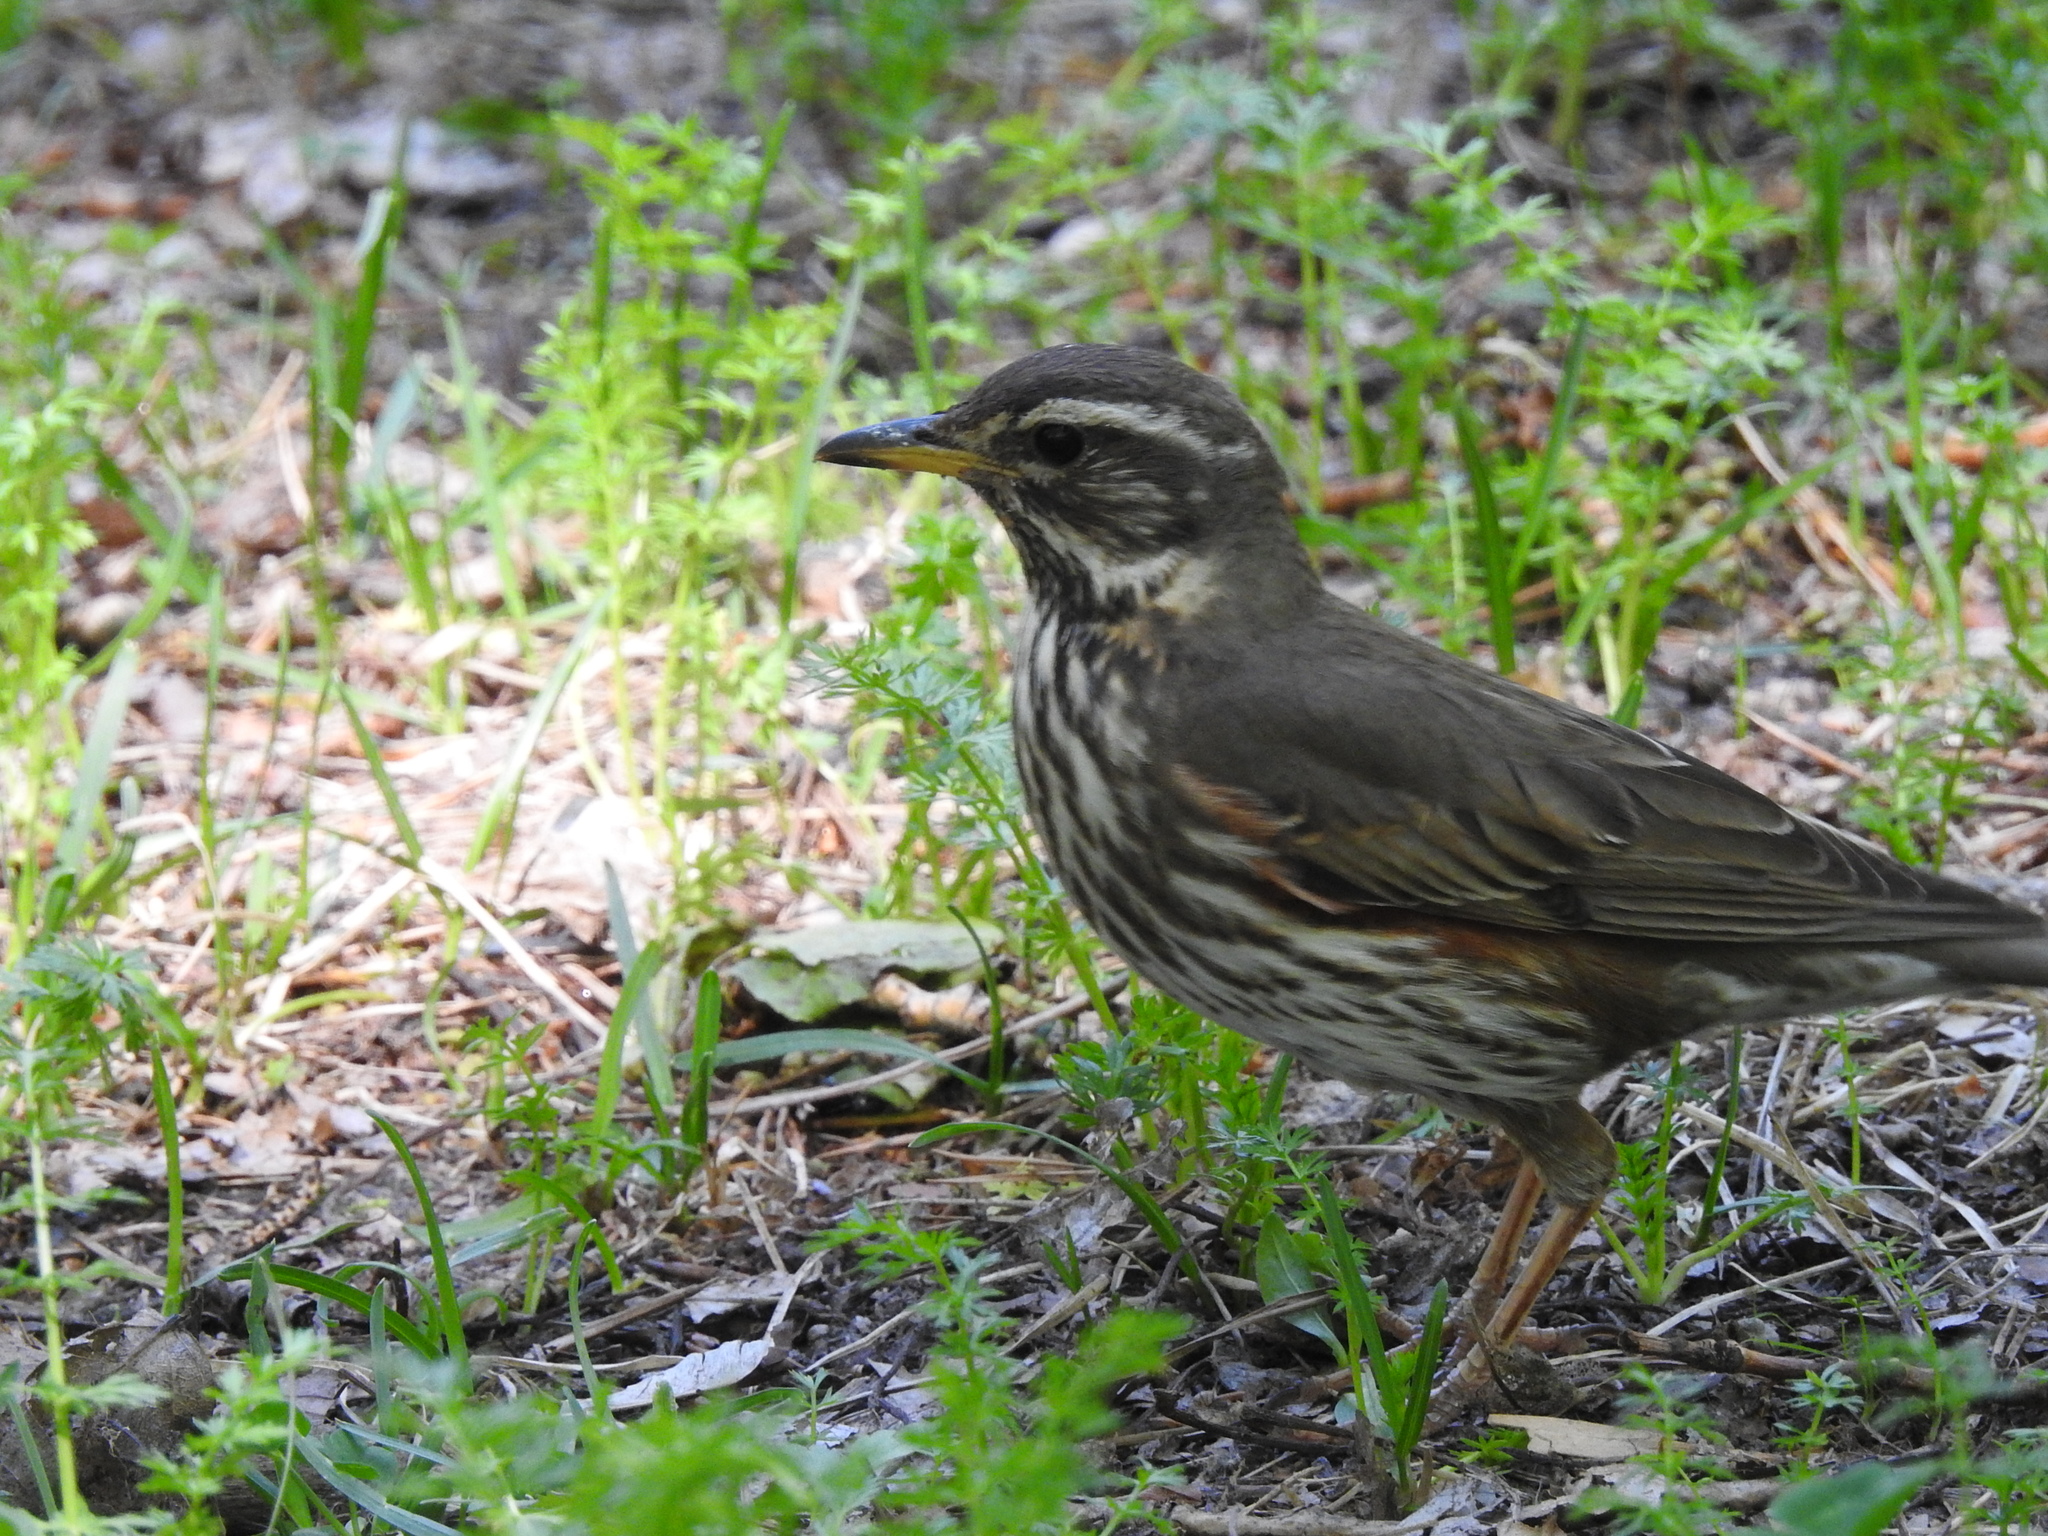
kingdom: Animalia
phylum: Chordata
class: Aves
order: Passeriformes
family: Turdidae
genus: Turdus
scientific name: Turdus iliacus
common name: Redwing
